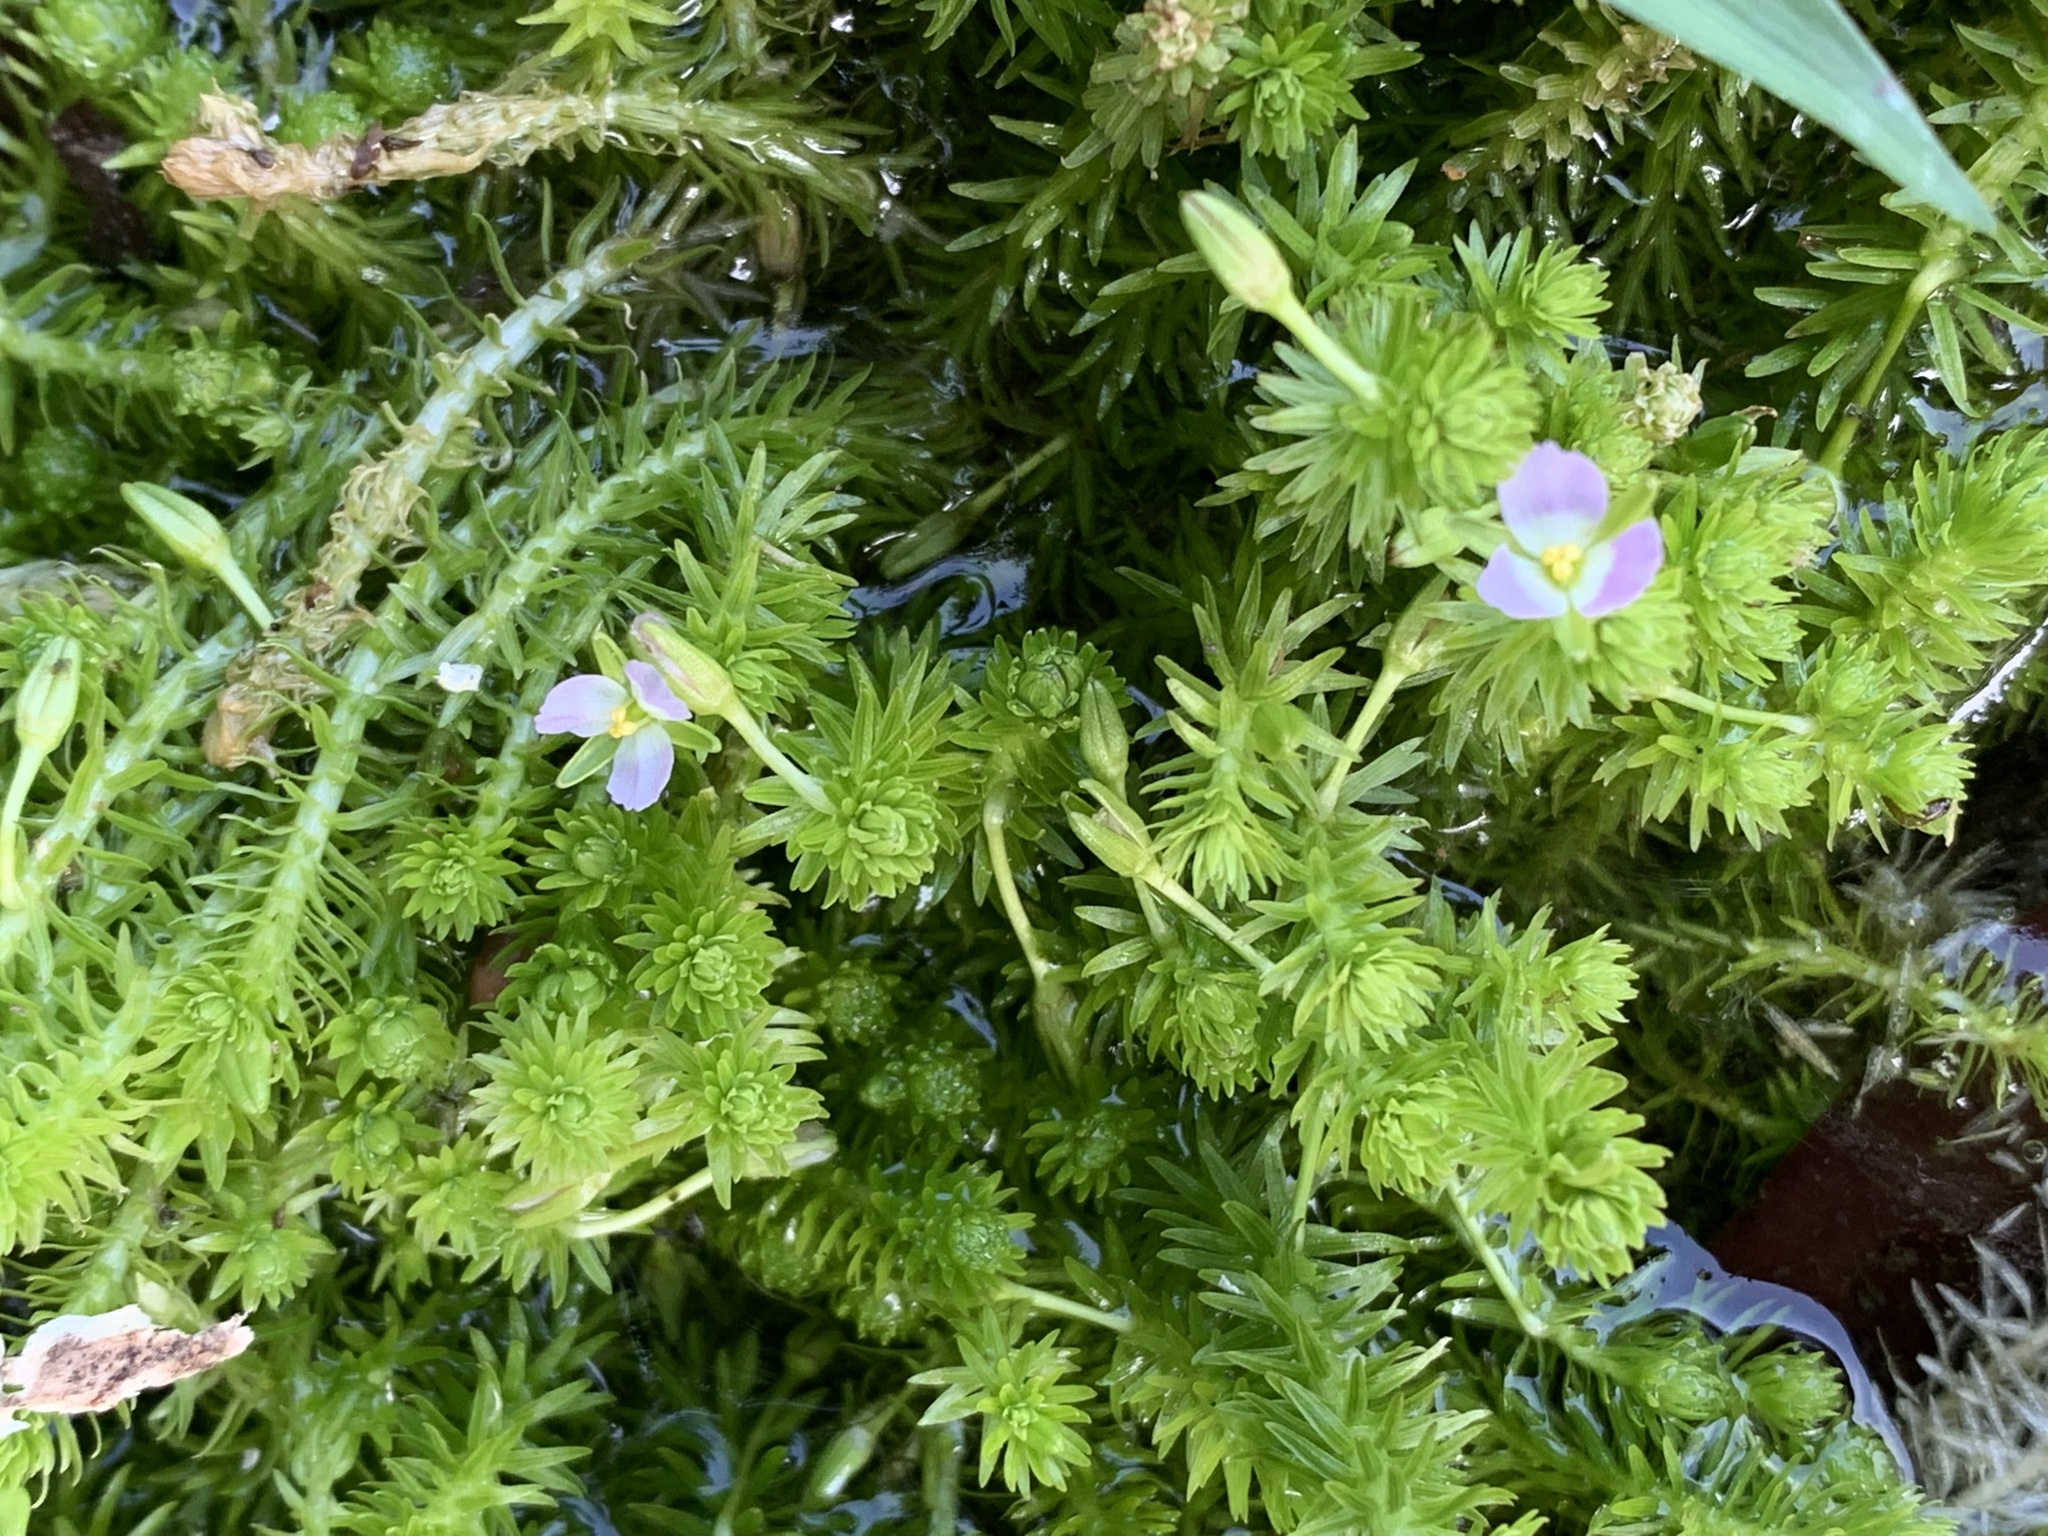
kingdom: Plantae
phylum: Tracheophyta
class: Liliopsida
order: Poales
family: Mayacaceae
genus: Mayaca
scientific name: Mayaca fluviatilis
